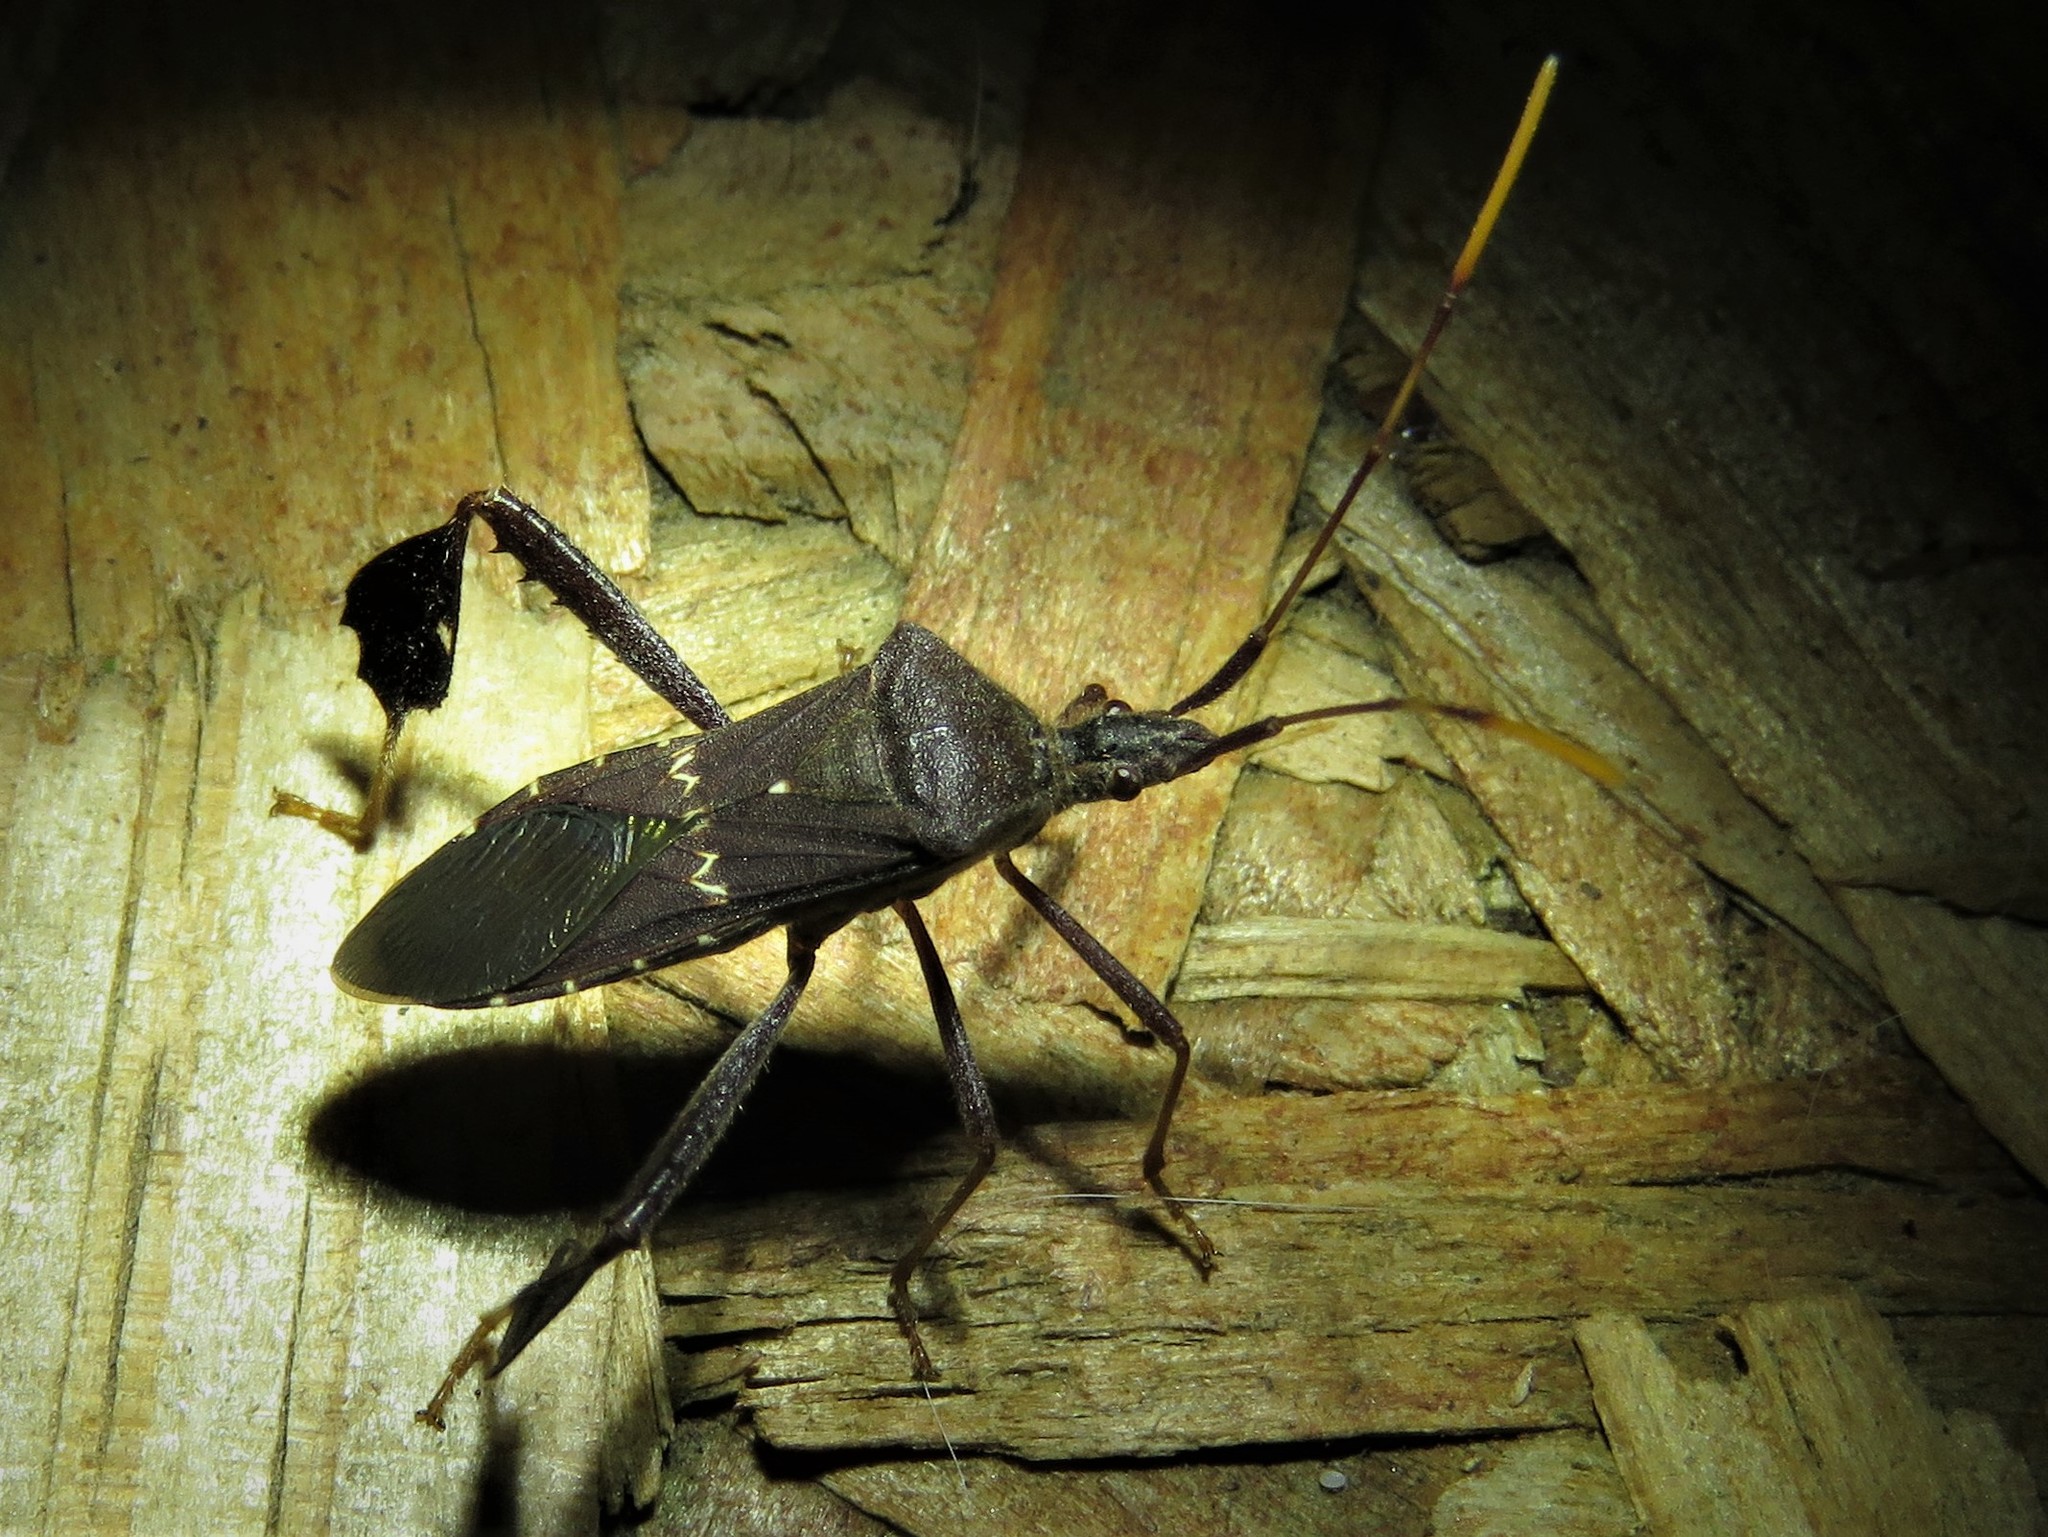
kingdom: Animalia
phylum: Arthropoda
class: Insecta
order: Hemiptera
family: Coreidae
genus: Leptoglossus
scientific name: Leptoglossus oppositus
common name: Northern leaf-footed bug
